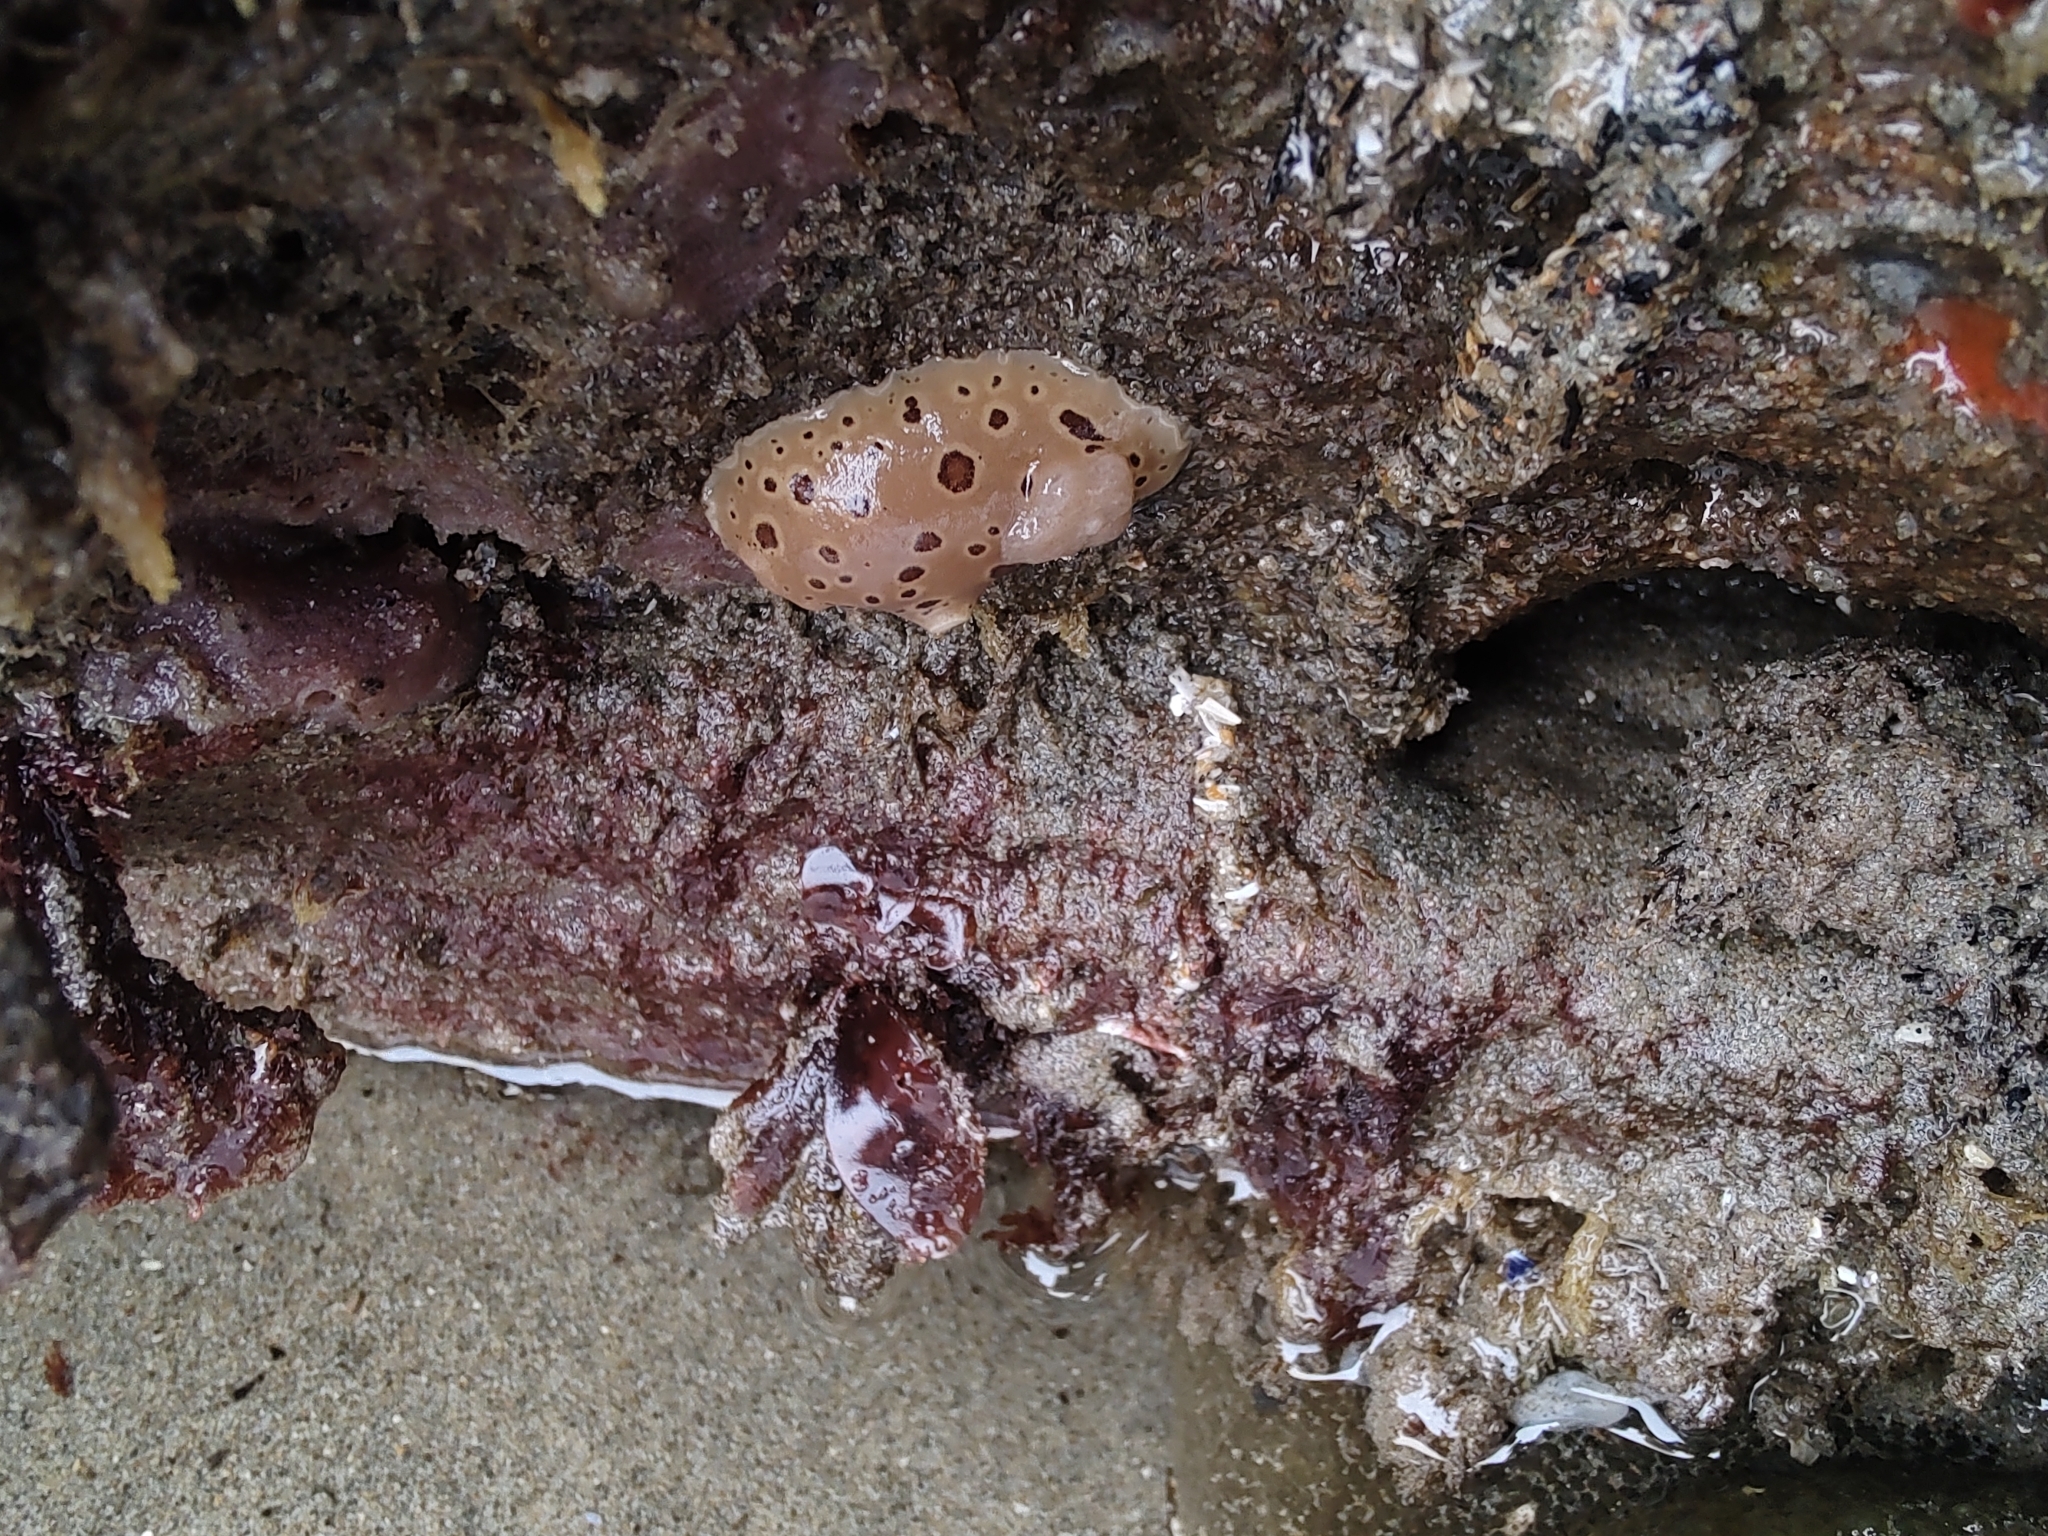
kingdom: Animalia
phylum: Mollusca
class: Gastropoda
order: Nudibranchia
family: Discodorididae
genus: Diaulula
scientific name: Diaulula odonoghuei
